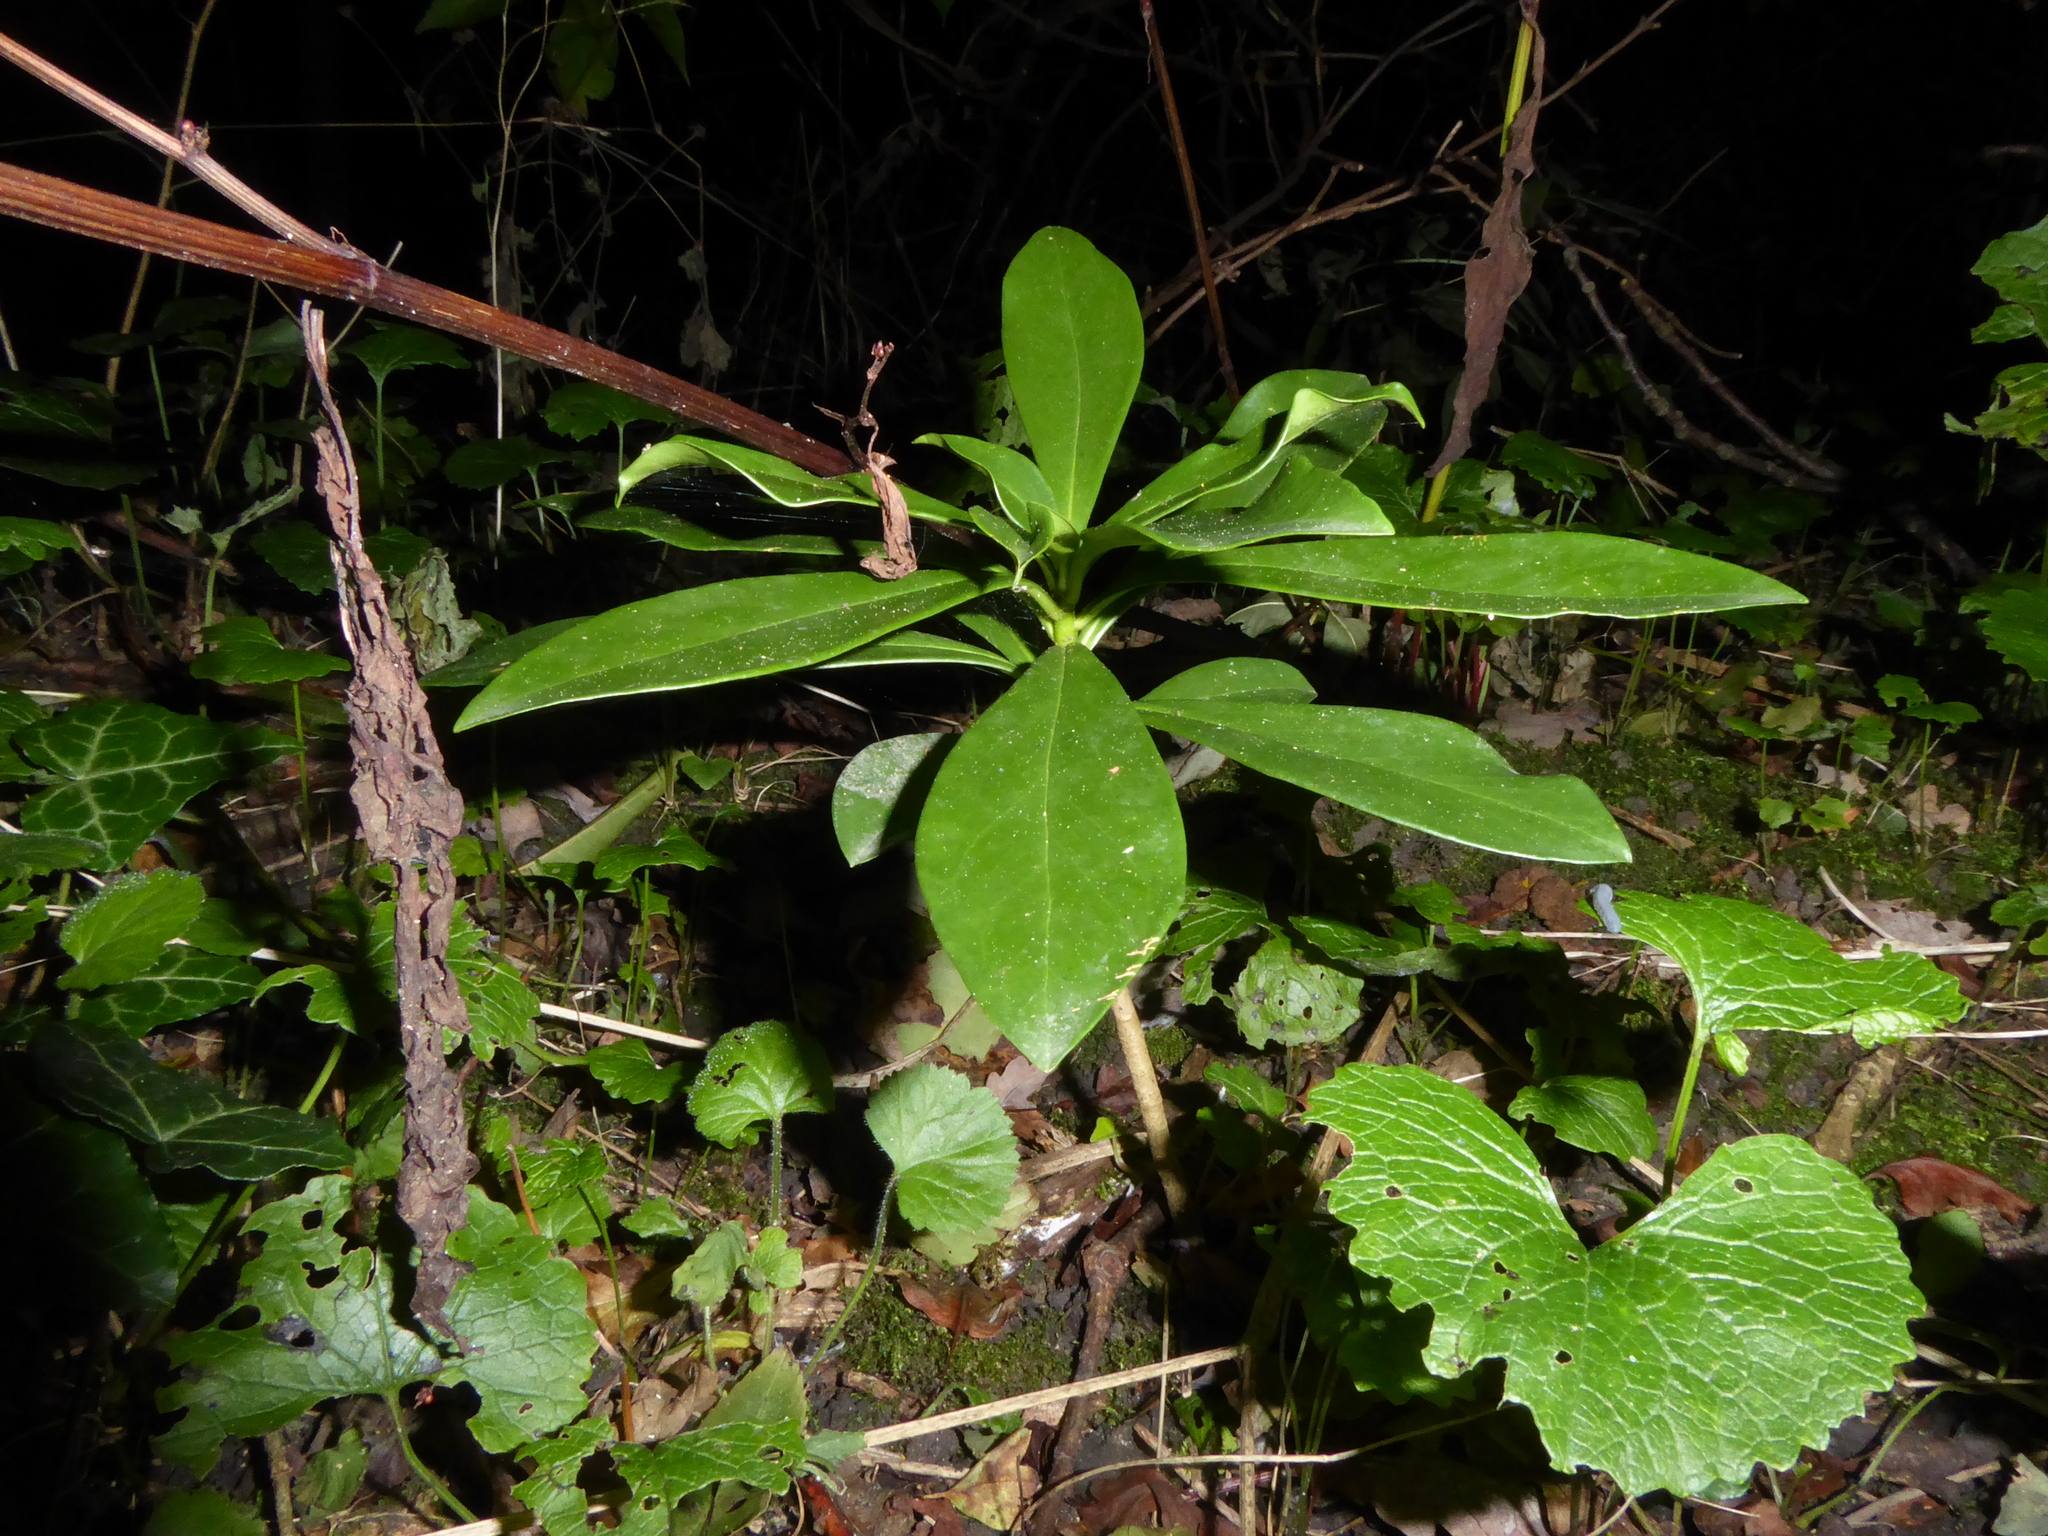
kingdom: Plantae
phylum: Tracheophyta
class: Magnoliopsida
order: Malvales
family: Thymelaeaceae
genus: Daphne
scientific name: Daphne laureola
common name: Spurge-laurel
